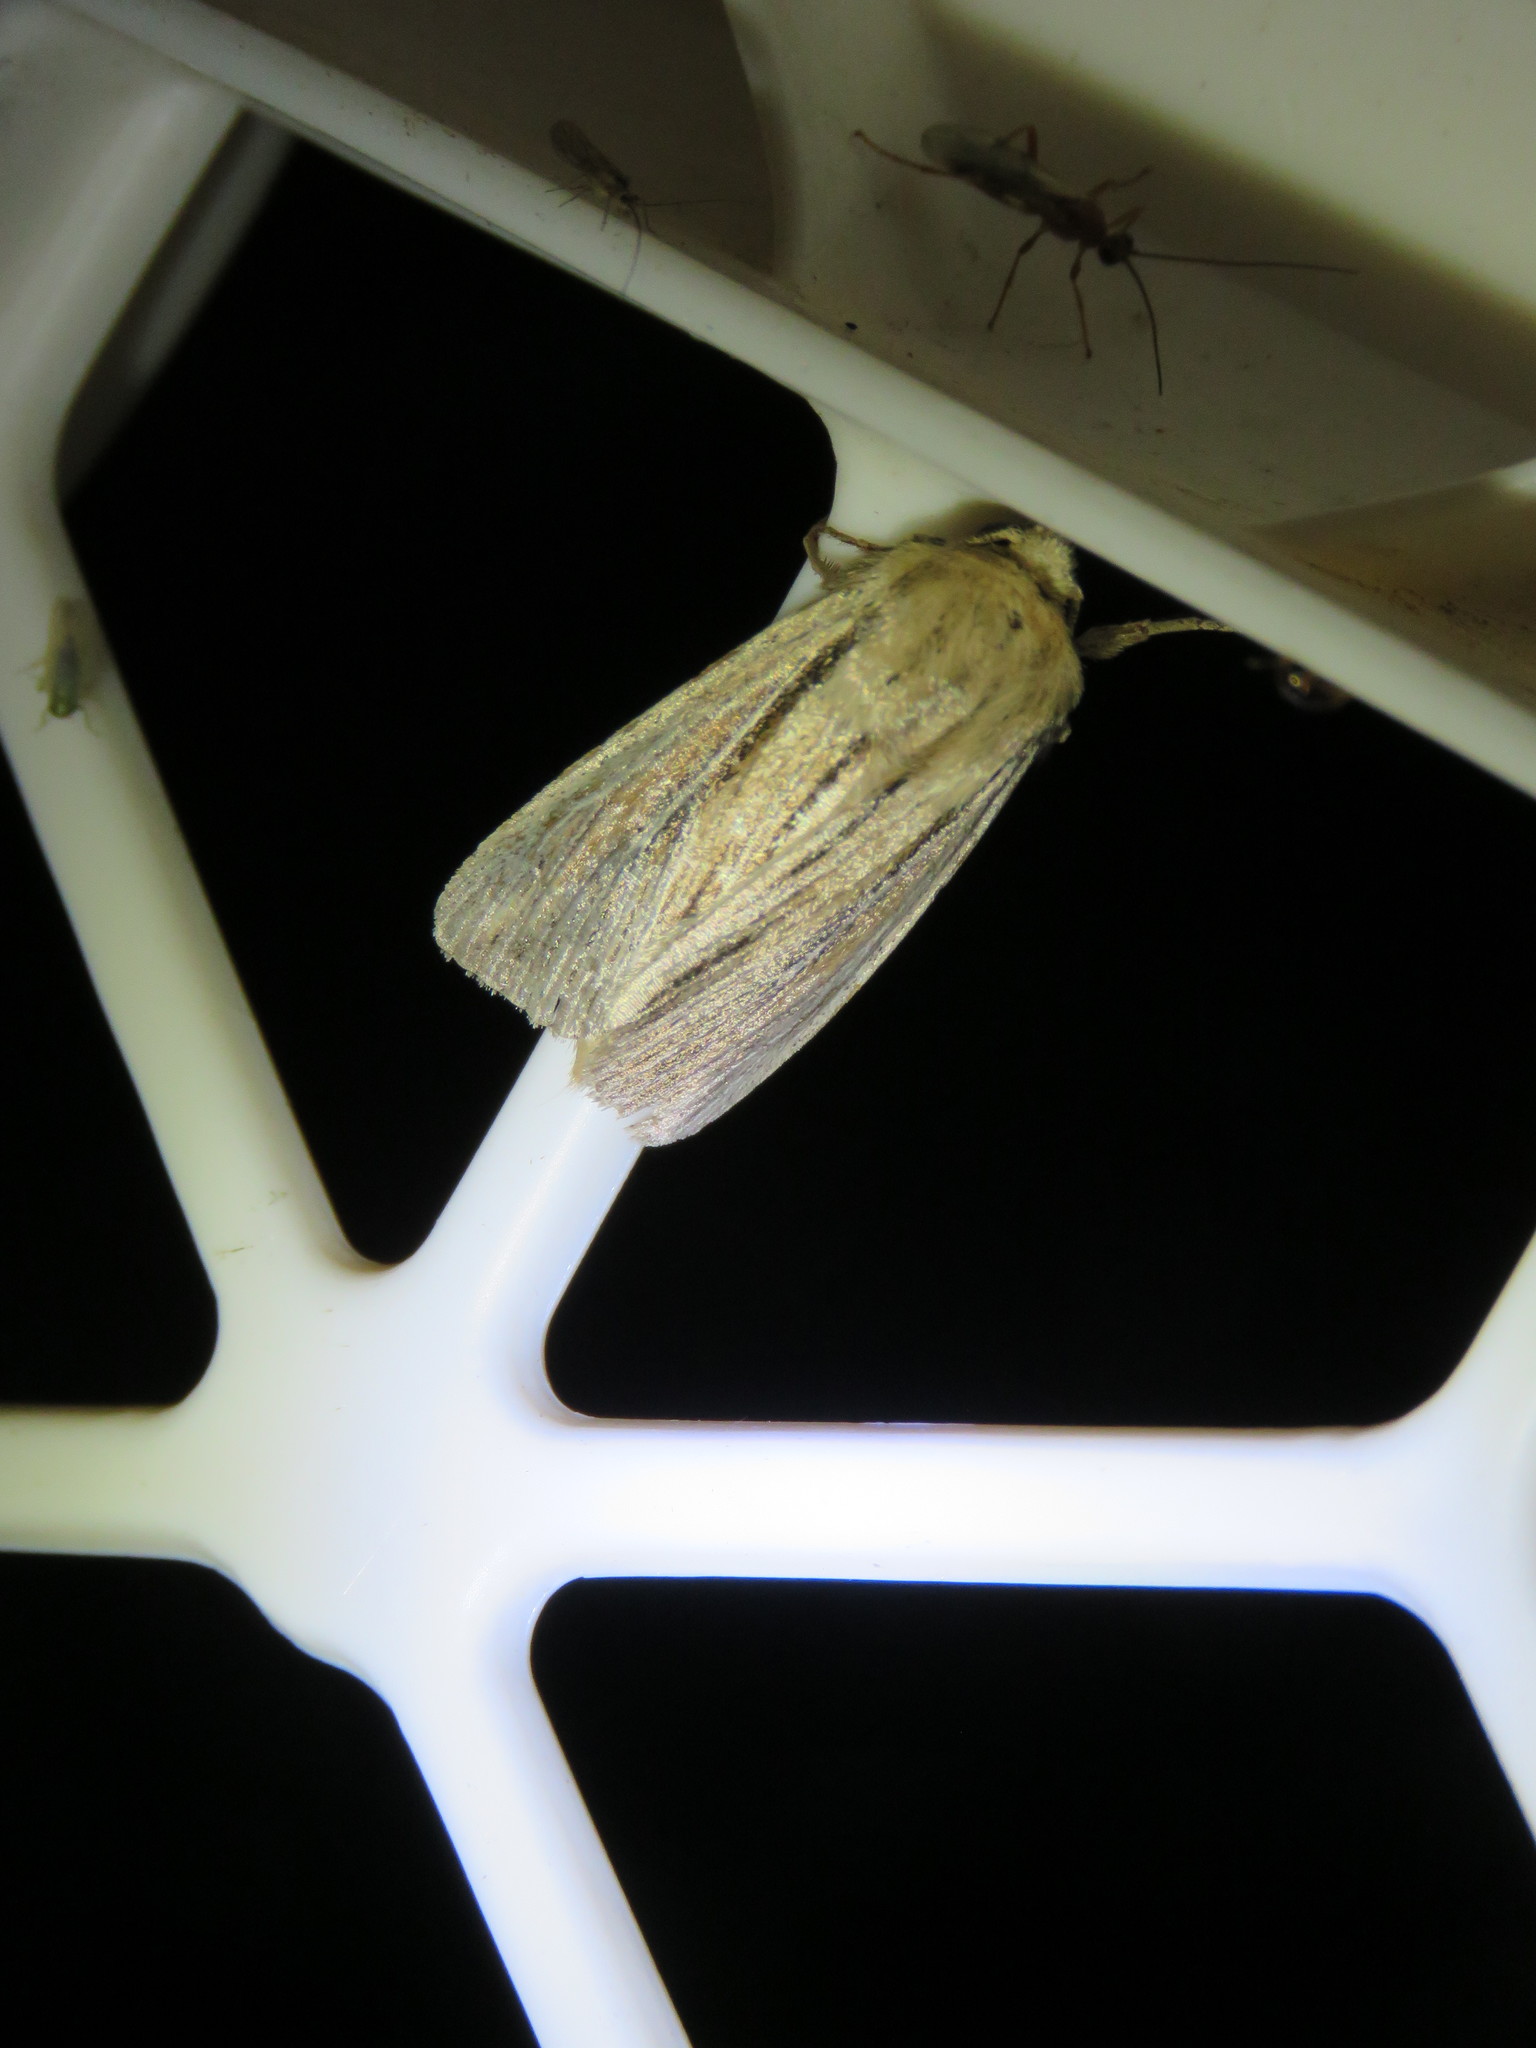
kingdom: Animalia
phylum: Arthropoda
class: Insecta
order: Lepidoptera
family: Noctuidae
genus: Leucania
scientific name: Leucania commoides
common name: Two-lined wainscot
